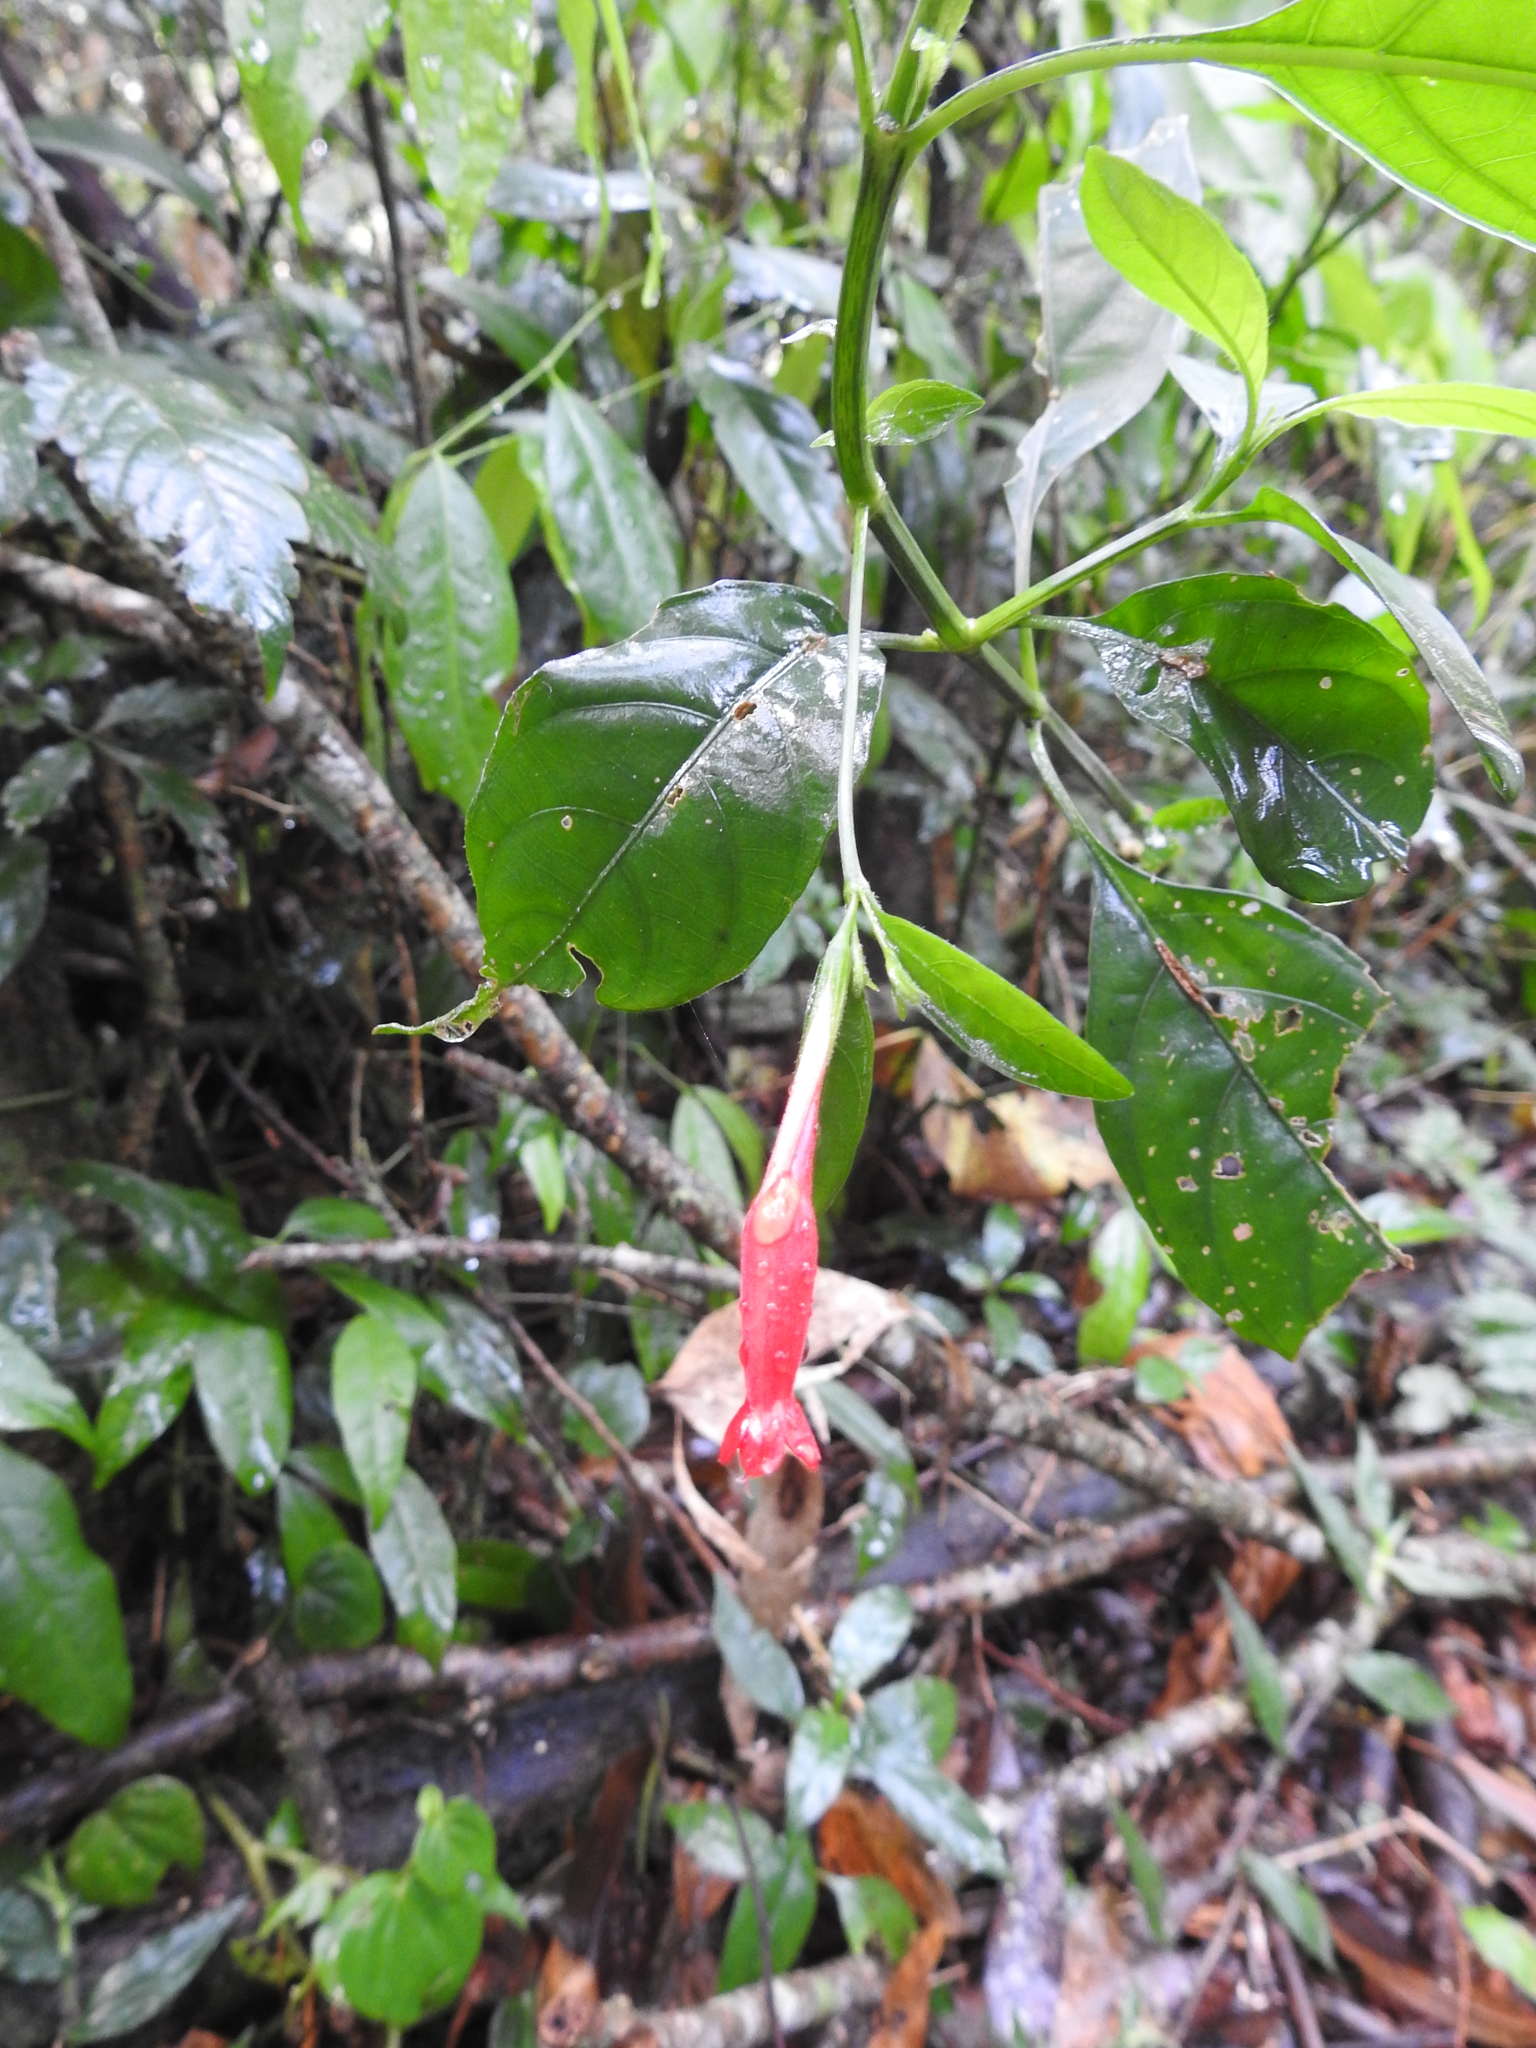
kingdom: Plantae
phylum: Tracheophyta
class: Magnoliopsida
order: Lamiales
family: Acanthaceae
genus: Ruellia
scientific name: Ruellia angustiflora
